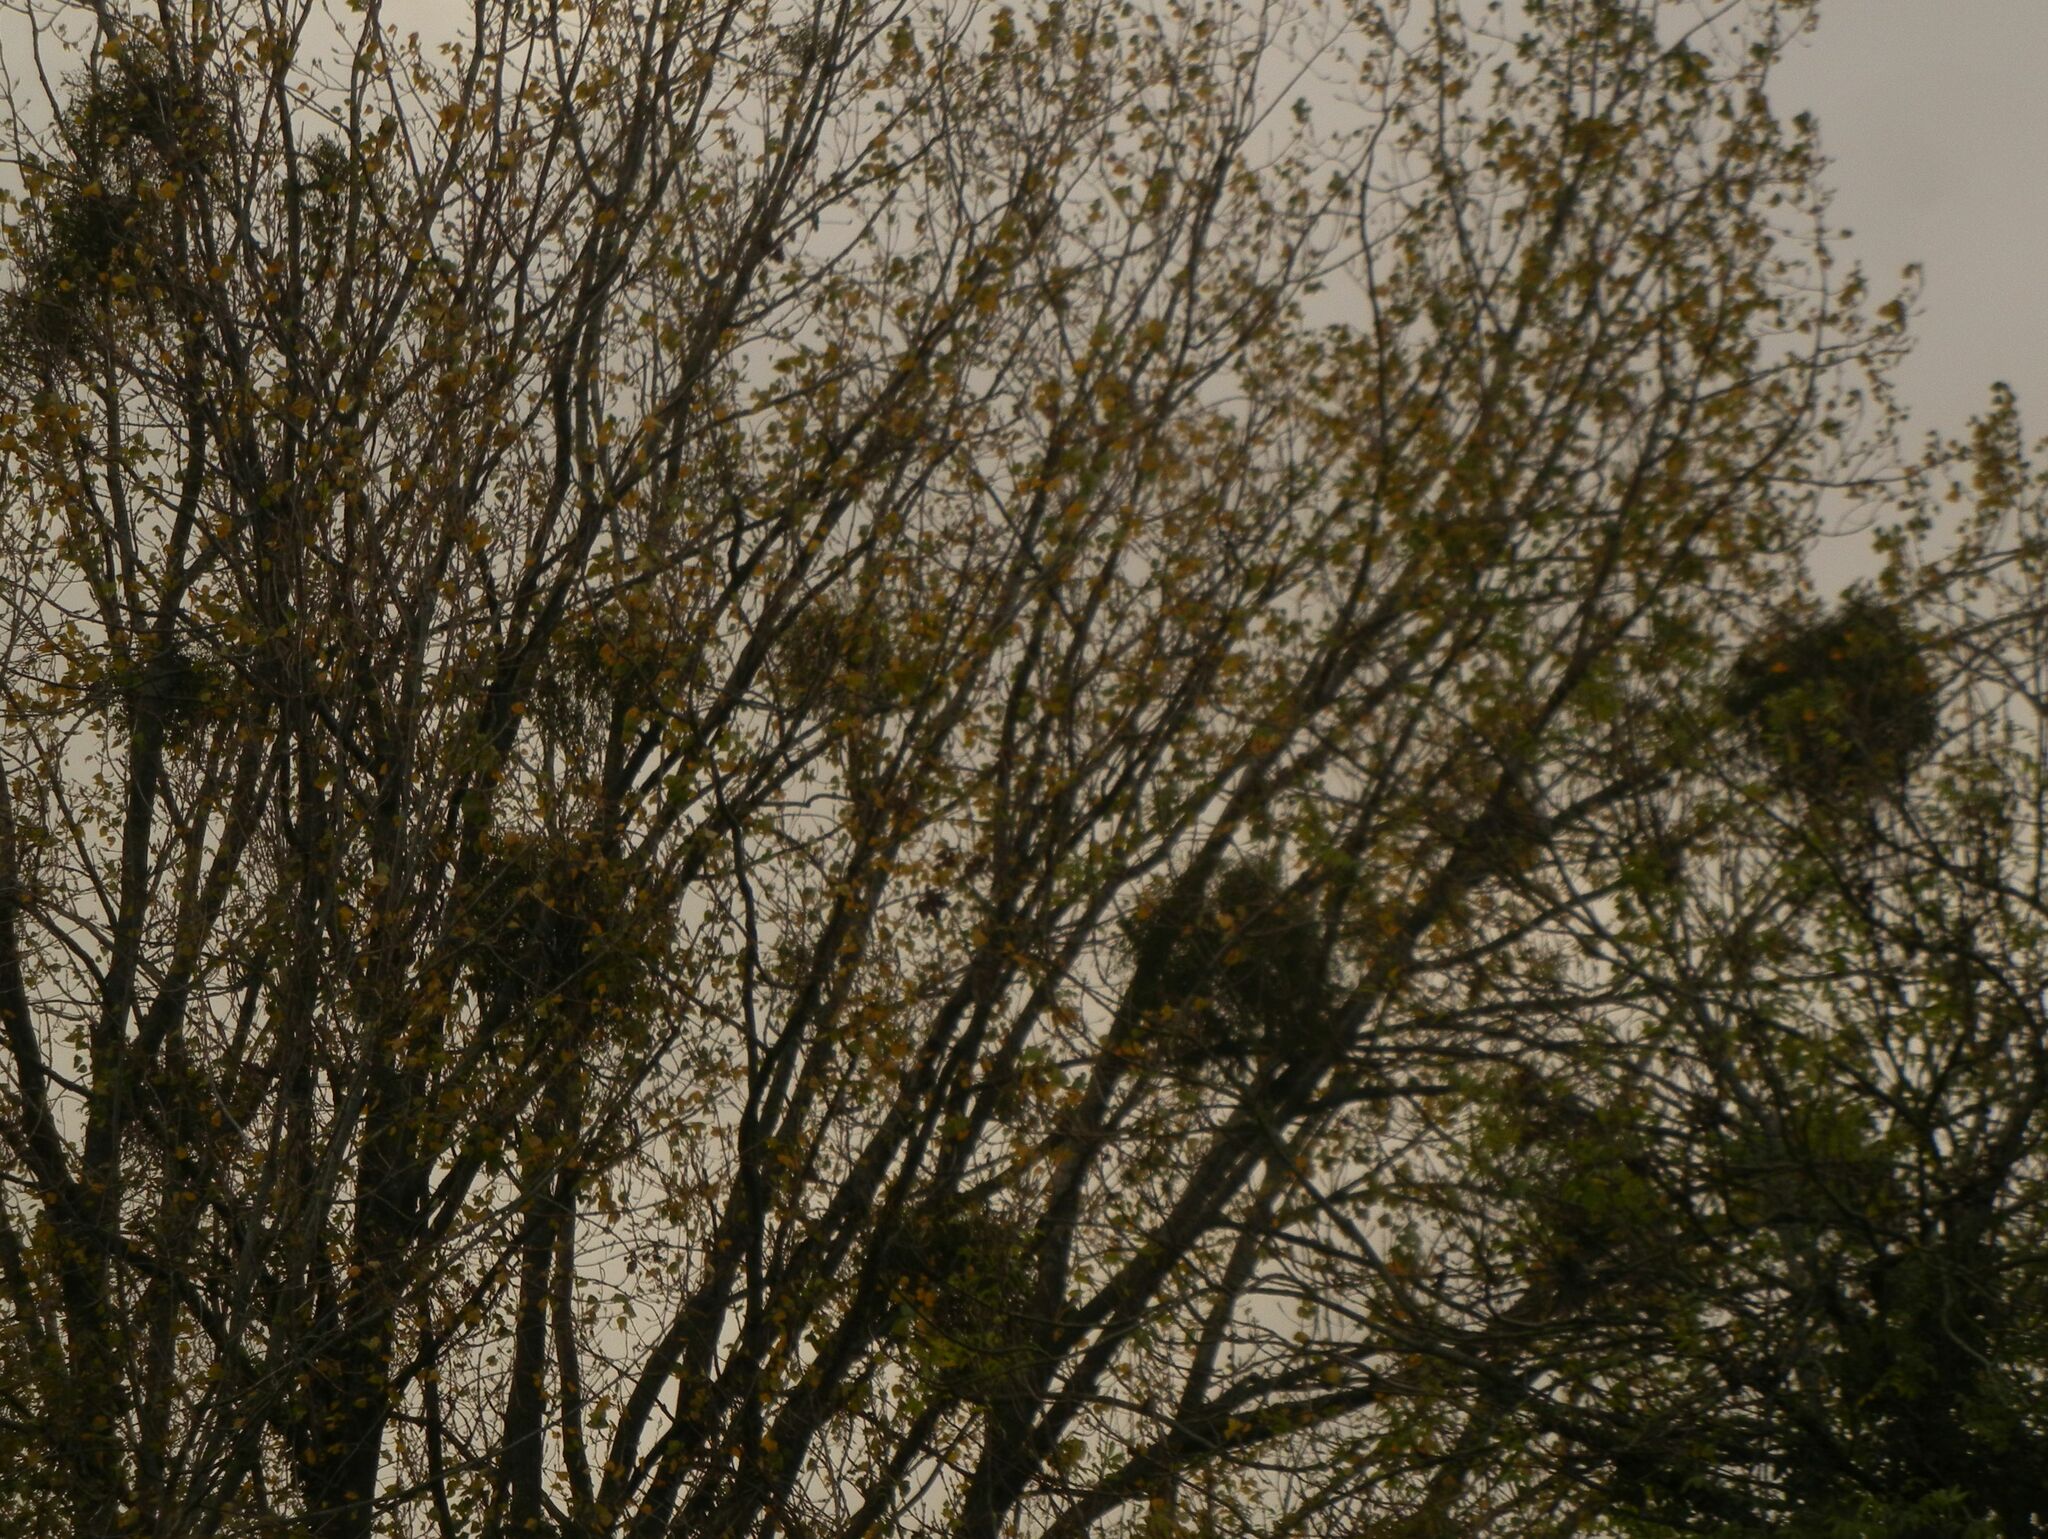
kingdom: Plantae
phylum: Tracheophyta
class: Magnoliopsida
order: Santalales
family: Viscaceae
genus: Viscum
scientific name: Viscum album
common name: Mistletoe
